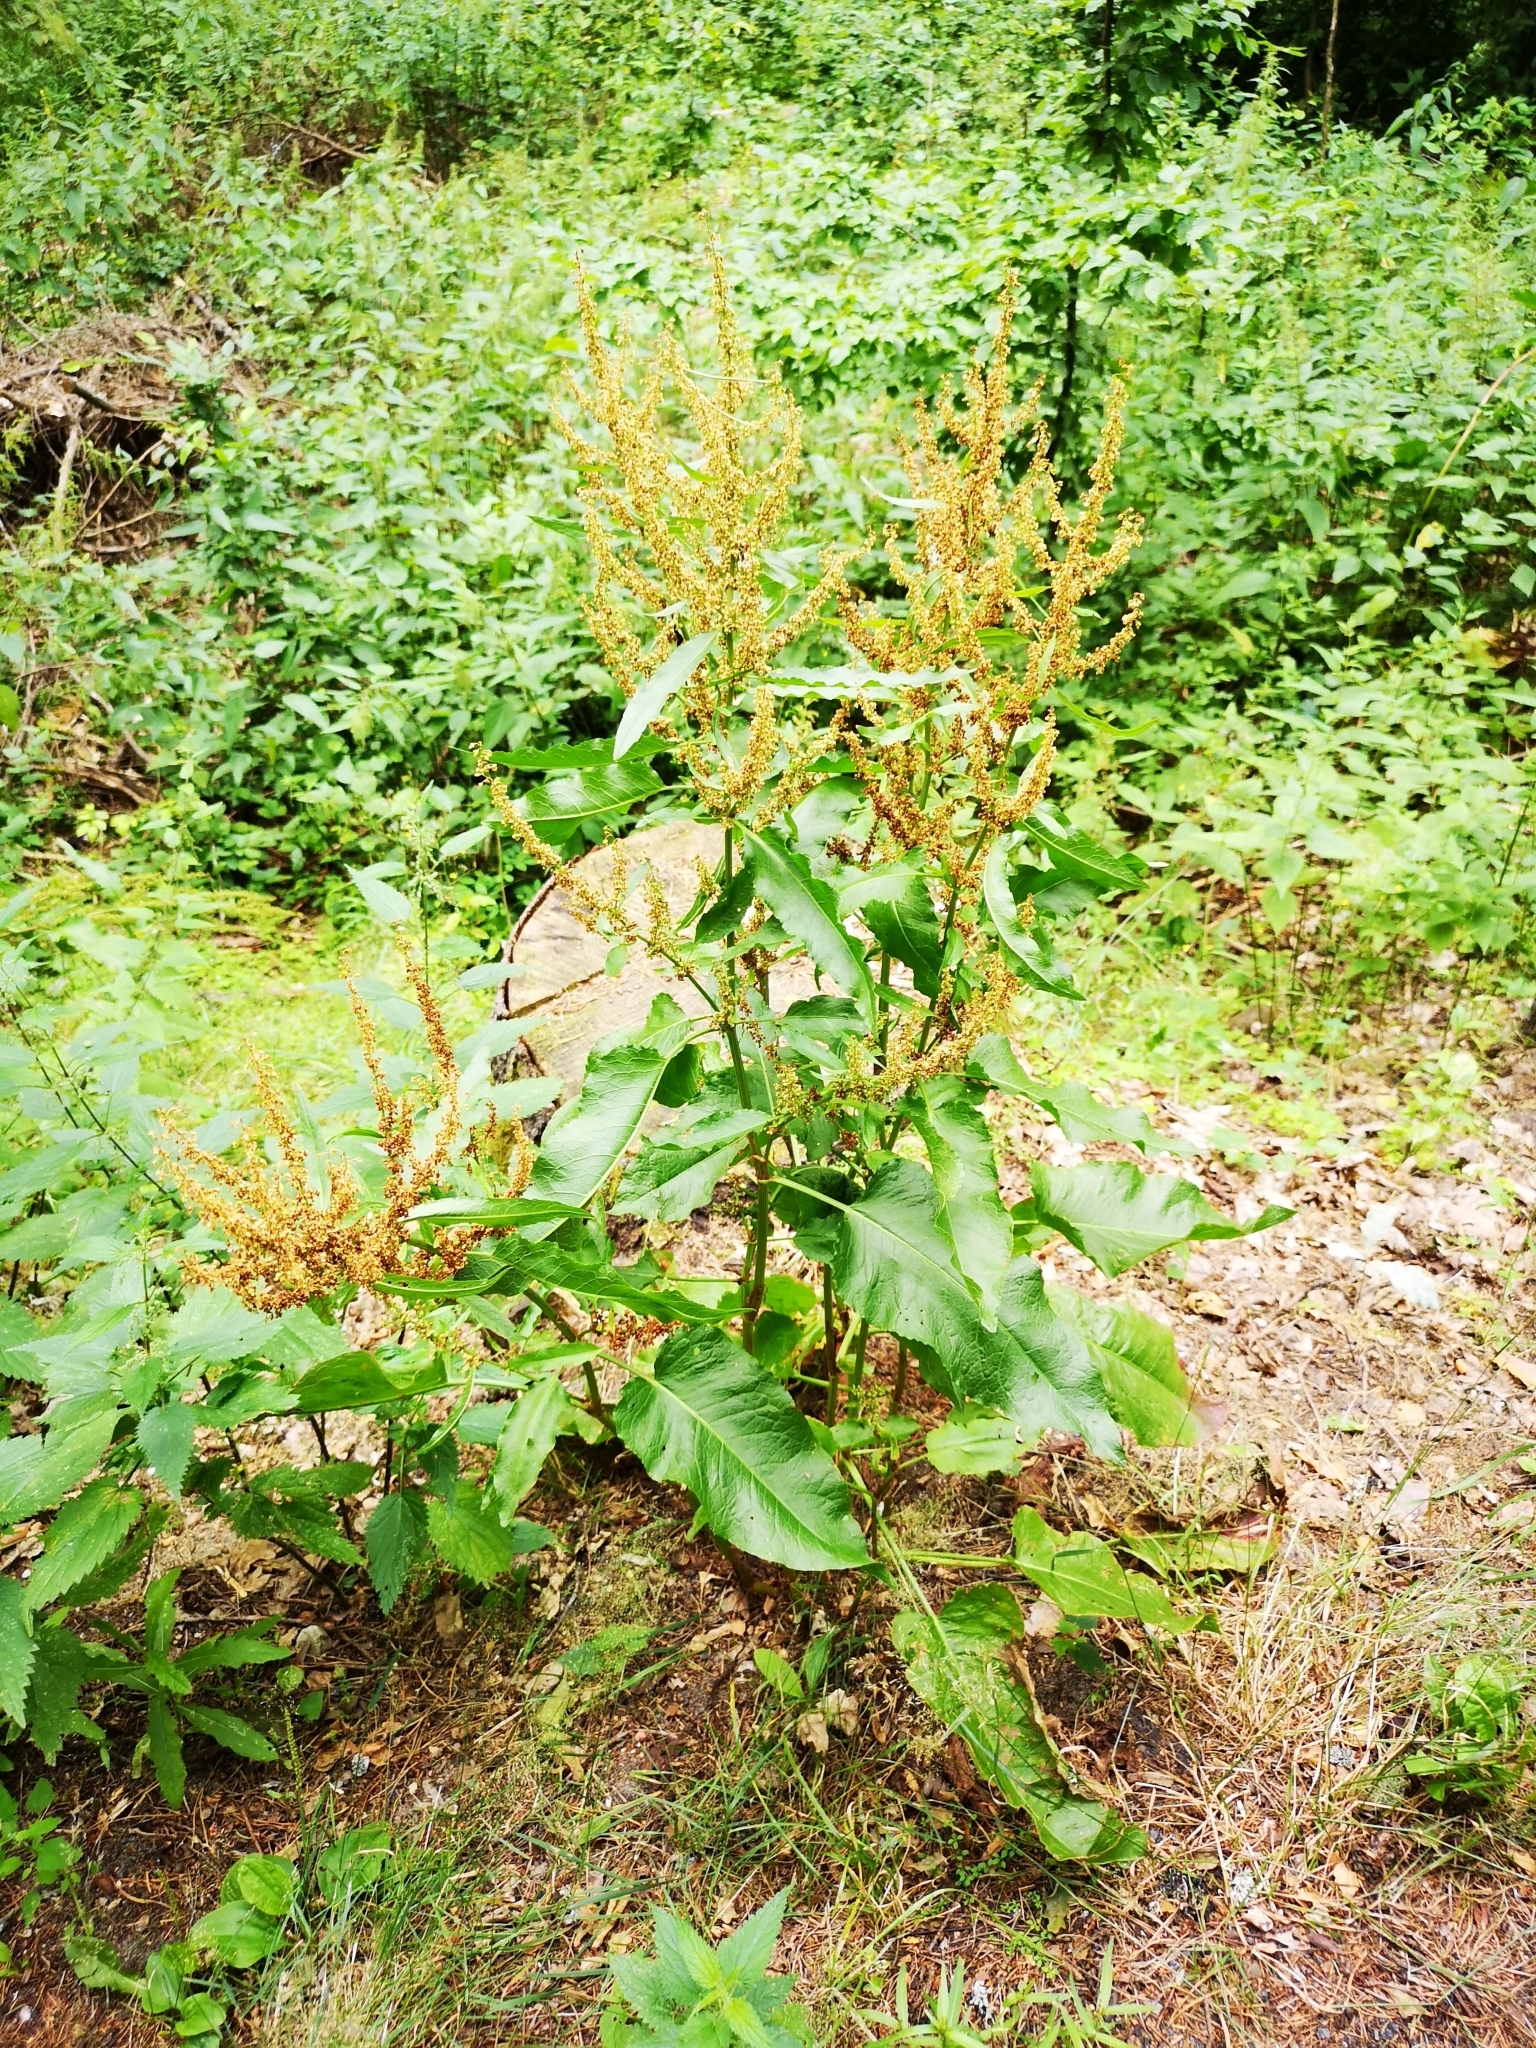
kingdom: Plantae
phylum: Tracheophyta
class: Magnoliopsida
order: Caryophyllales
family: Polygonaceae
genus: Rumex
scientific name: Rumex obtusifolius
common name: Bitter dock
